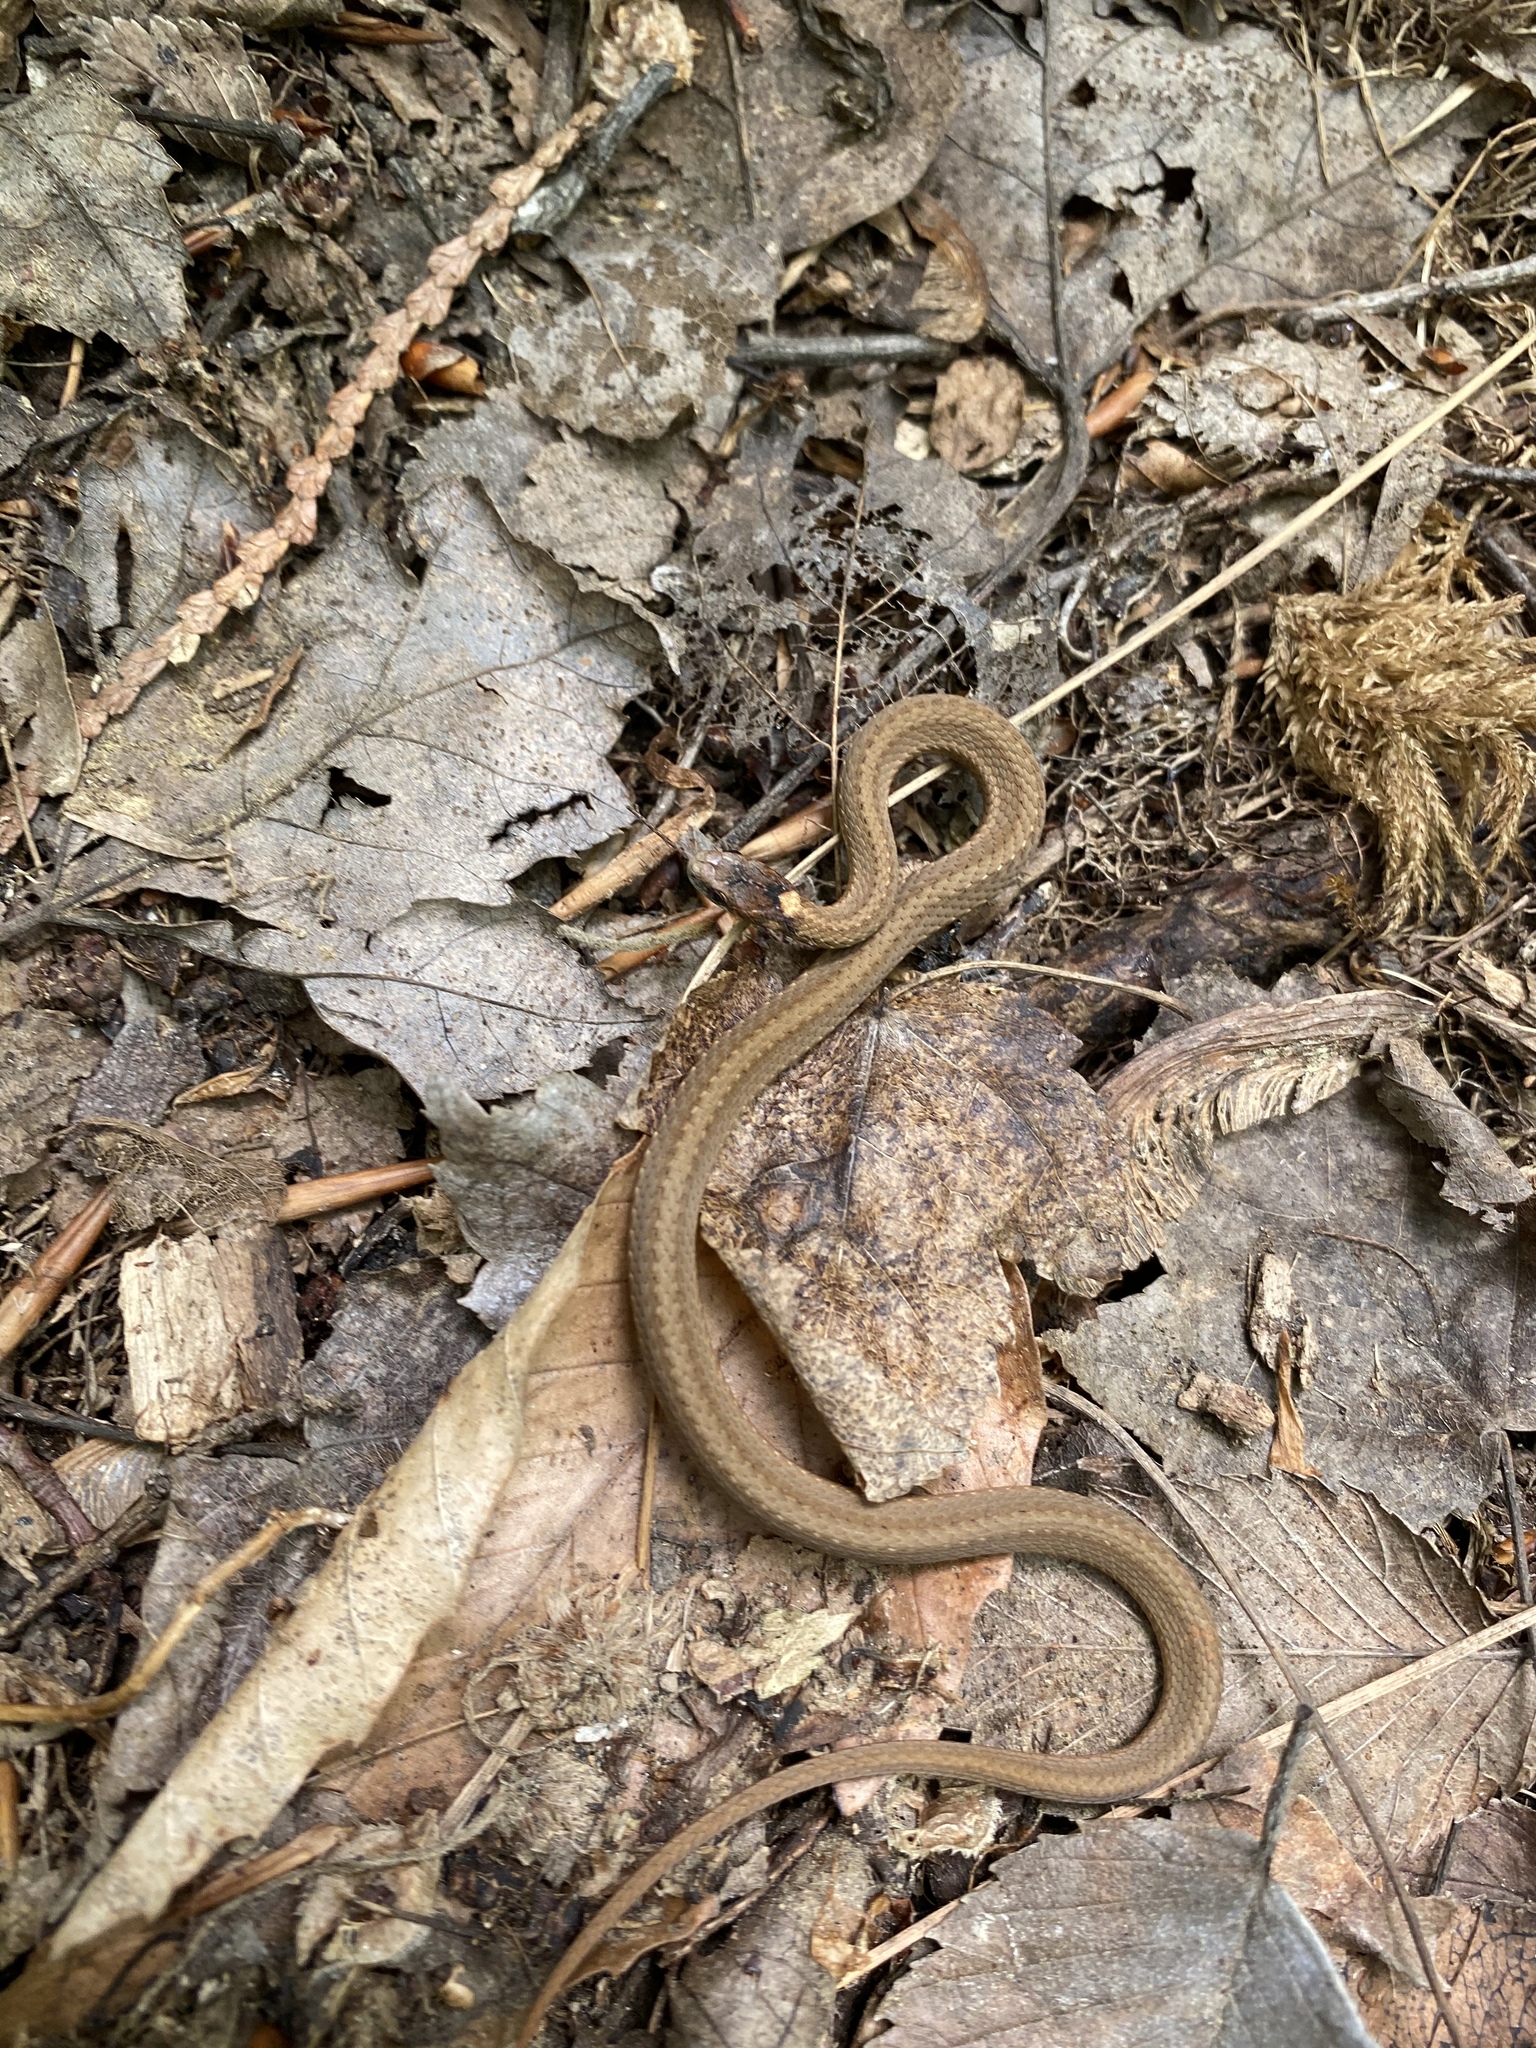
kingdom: Animalia
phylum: Chordata
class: Squamata
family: Colubridae
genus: Storeria
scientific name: Storeria occipitomaculata
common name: Redbelly snake
